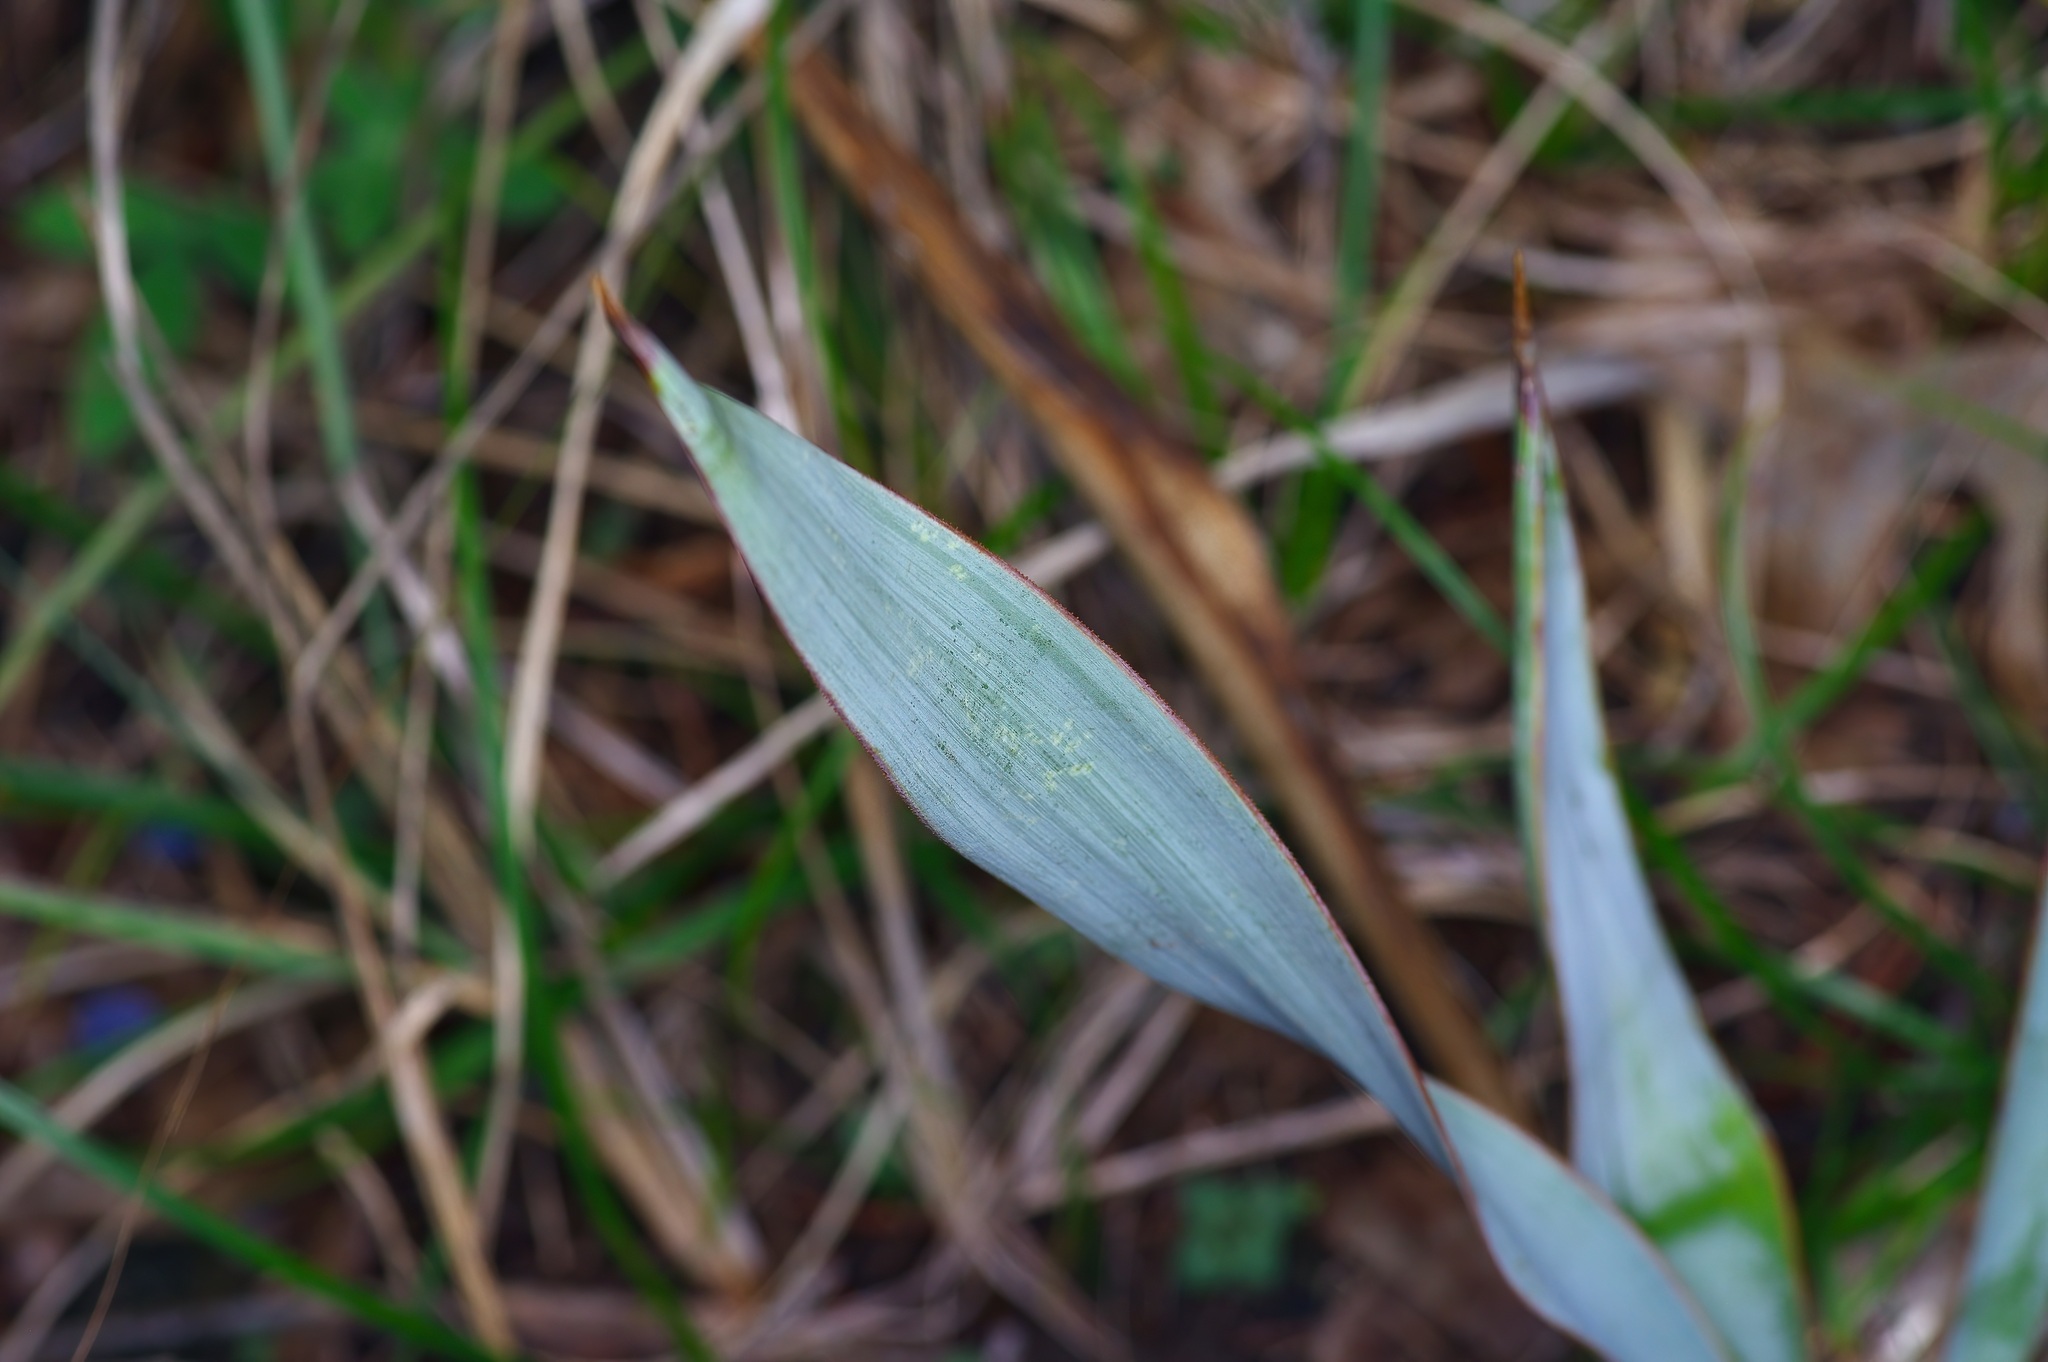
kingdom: Plantae
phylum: Tracheophyta
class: Liliopsida
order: Asparagales
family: Asparagaceae
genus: Yucca
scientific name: Yucca pallida
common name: Pale leaf yucca
